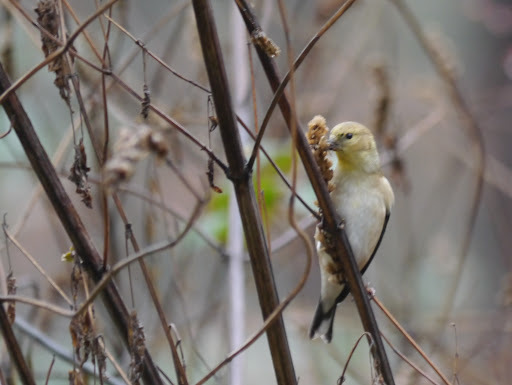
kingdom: Animalia
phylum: Chordata
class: Aves
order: Passeriformes
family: Fringillidae
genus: Spinus
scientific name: Spinus tristis
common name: American goldfinch
